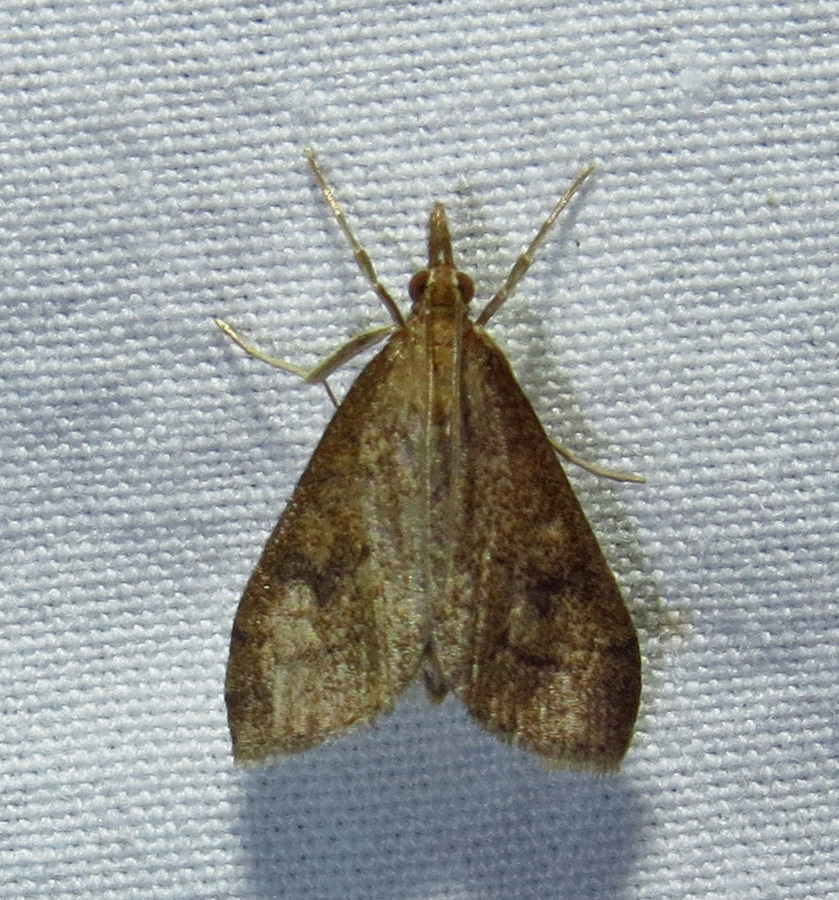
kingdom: Animalia
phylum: Arthropoda
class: Insecta
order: Lepidoptera
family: Crambidae
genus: Udea
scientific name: Udea rubigalis
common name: Celery leaftier moth
